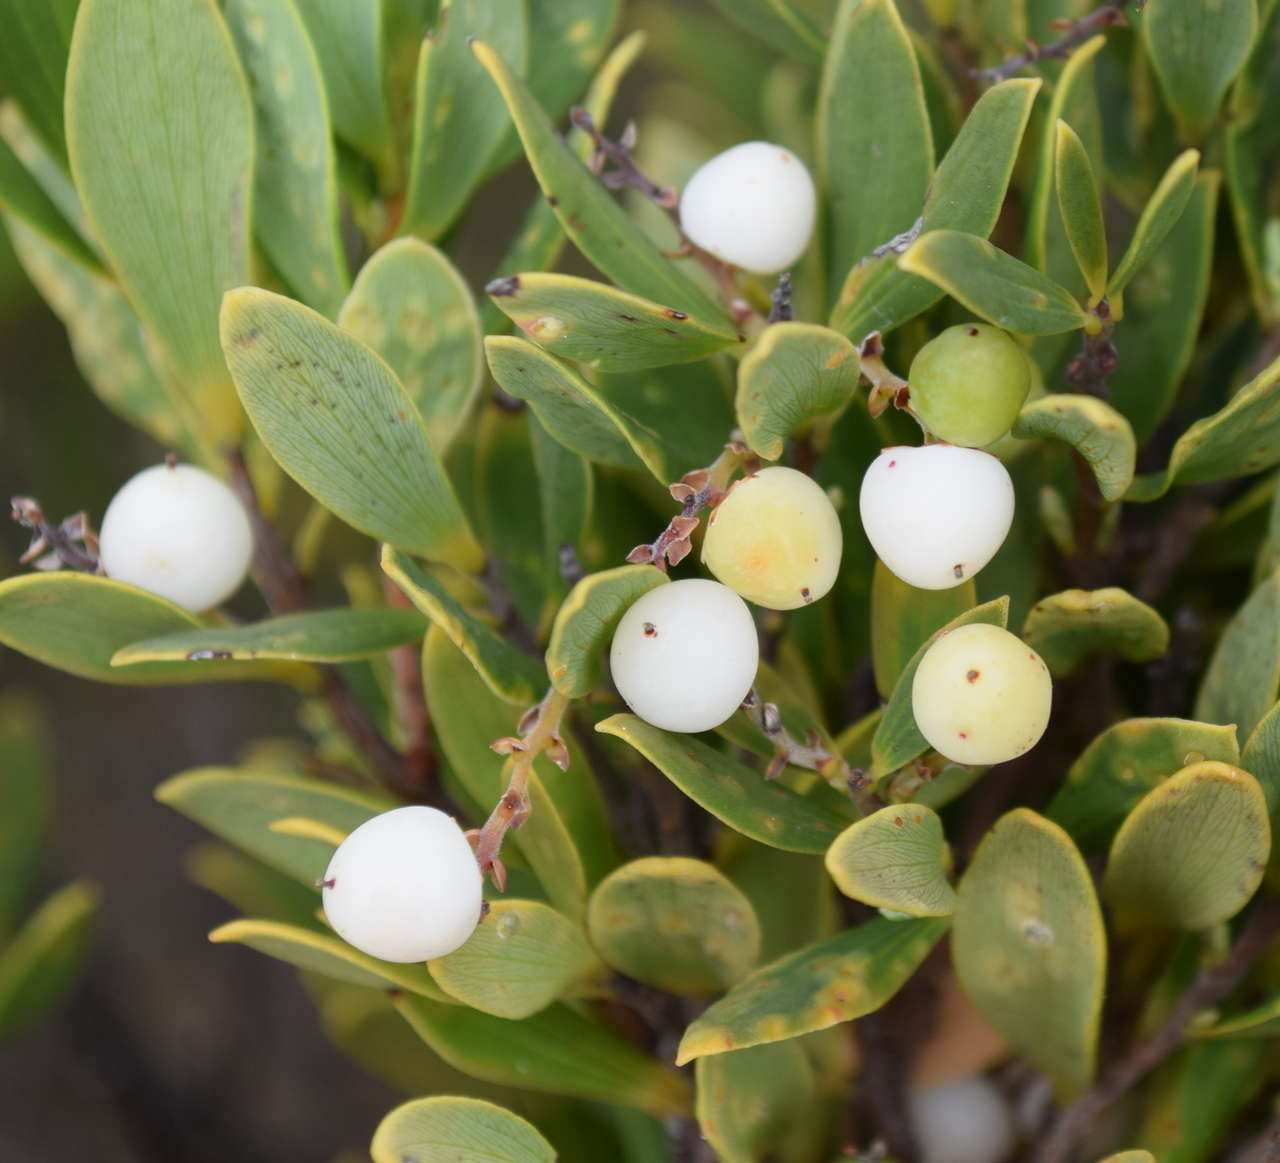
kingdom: Plantae
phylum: Tracheophyta
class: Magnoliopsida
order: Ericales
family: Ericaceae
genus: Leptecophylla
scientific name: Leptecophylla parvifolia
